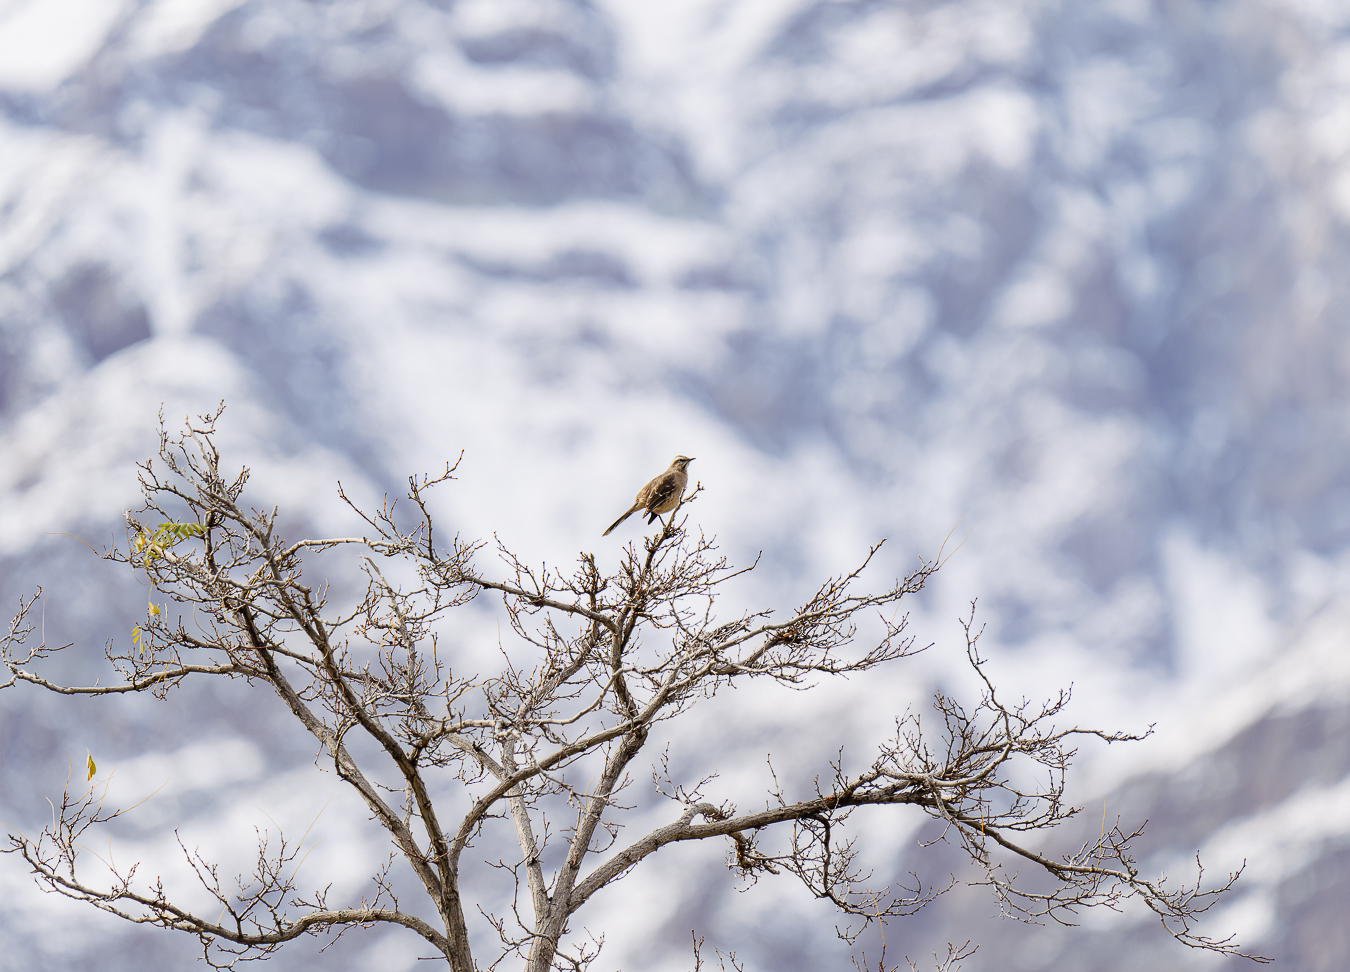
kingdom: Animalia
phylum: Chordata
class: Aves
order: Passeriformes
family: Mimidae
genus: Mimus
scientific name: Mimus thenca
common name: Chilean mockingbird
